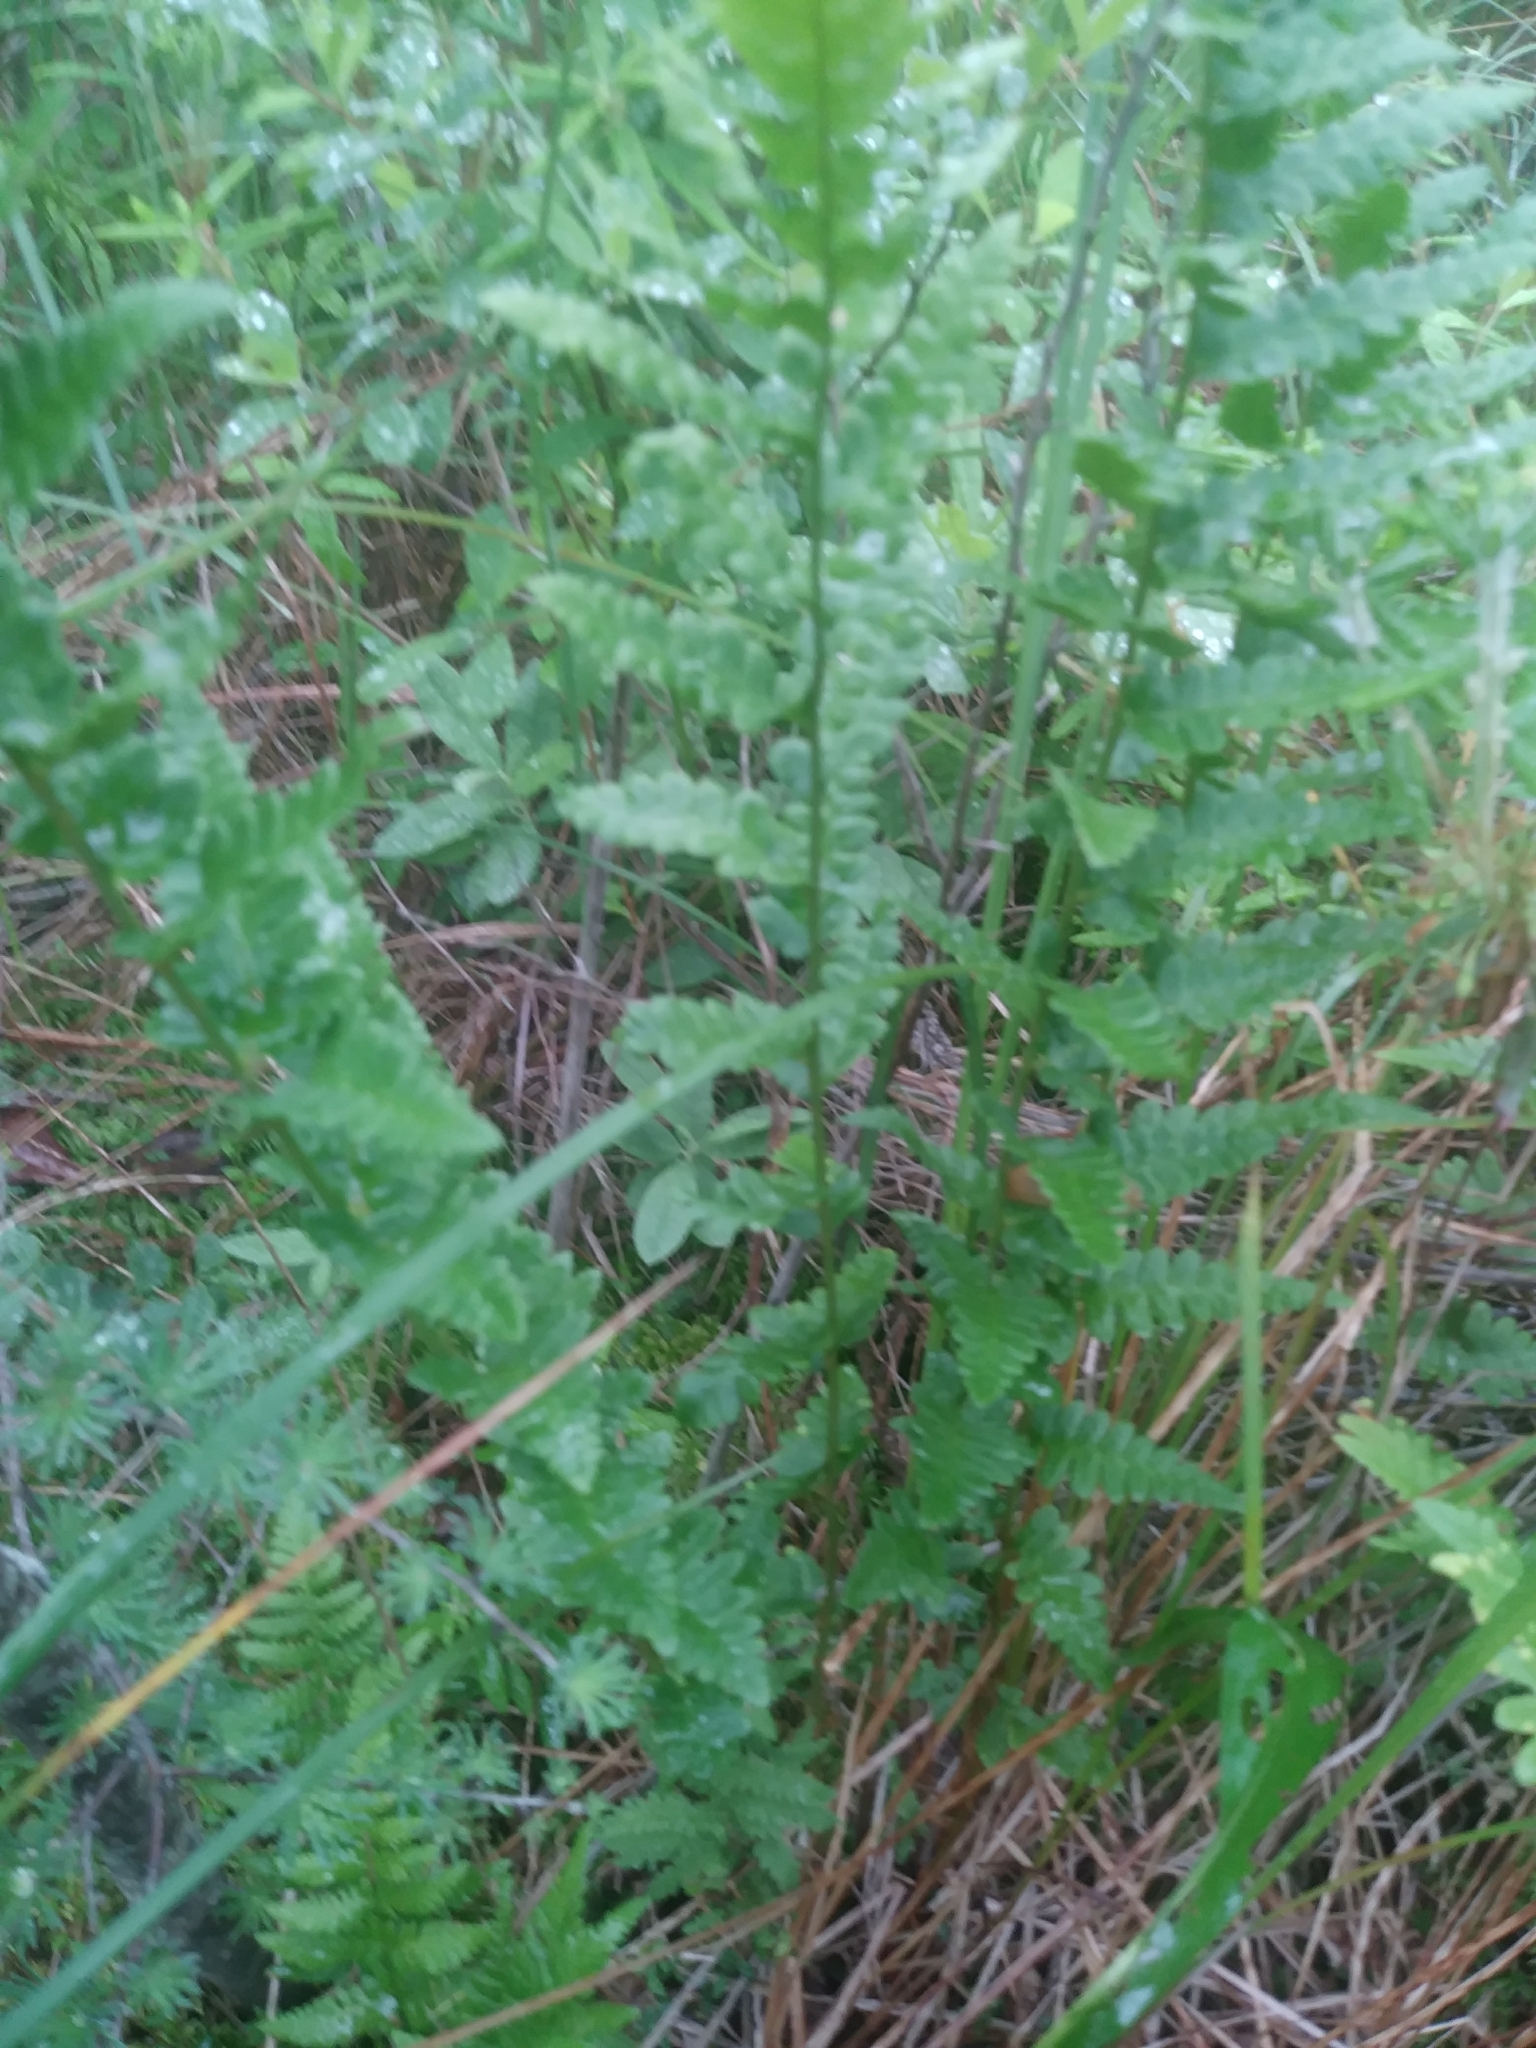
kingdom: Plantae
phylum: Tracheophyta
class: Polypodiopsida
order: Polypodiales
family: Dryopteridaceae
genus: Dryopteris
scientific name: Dryopteris cristata
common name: Crested wood fern
